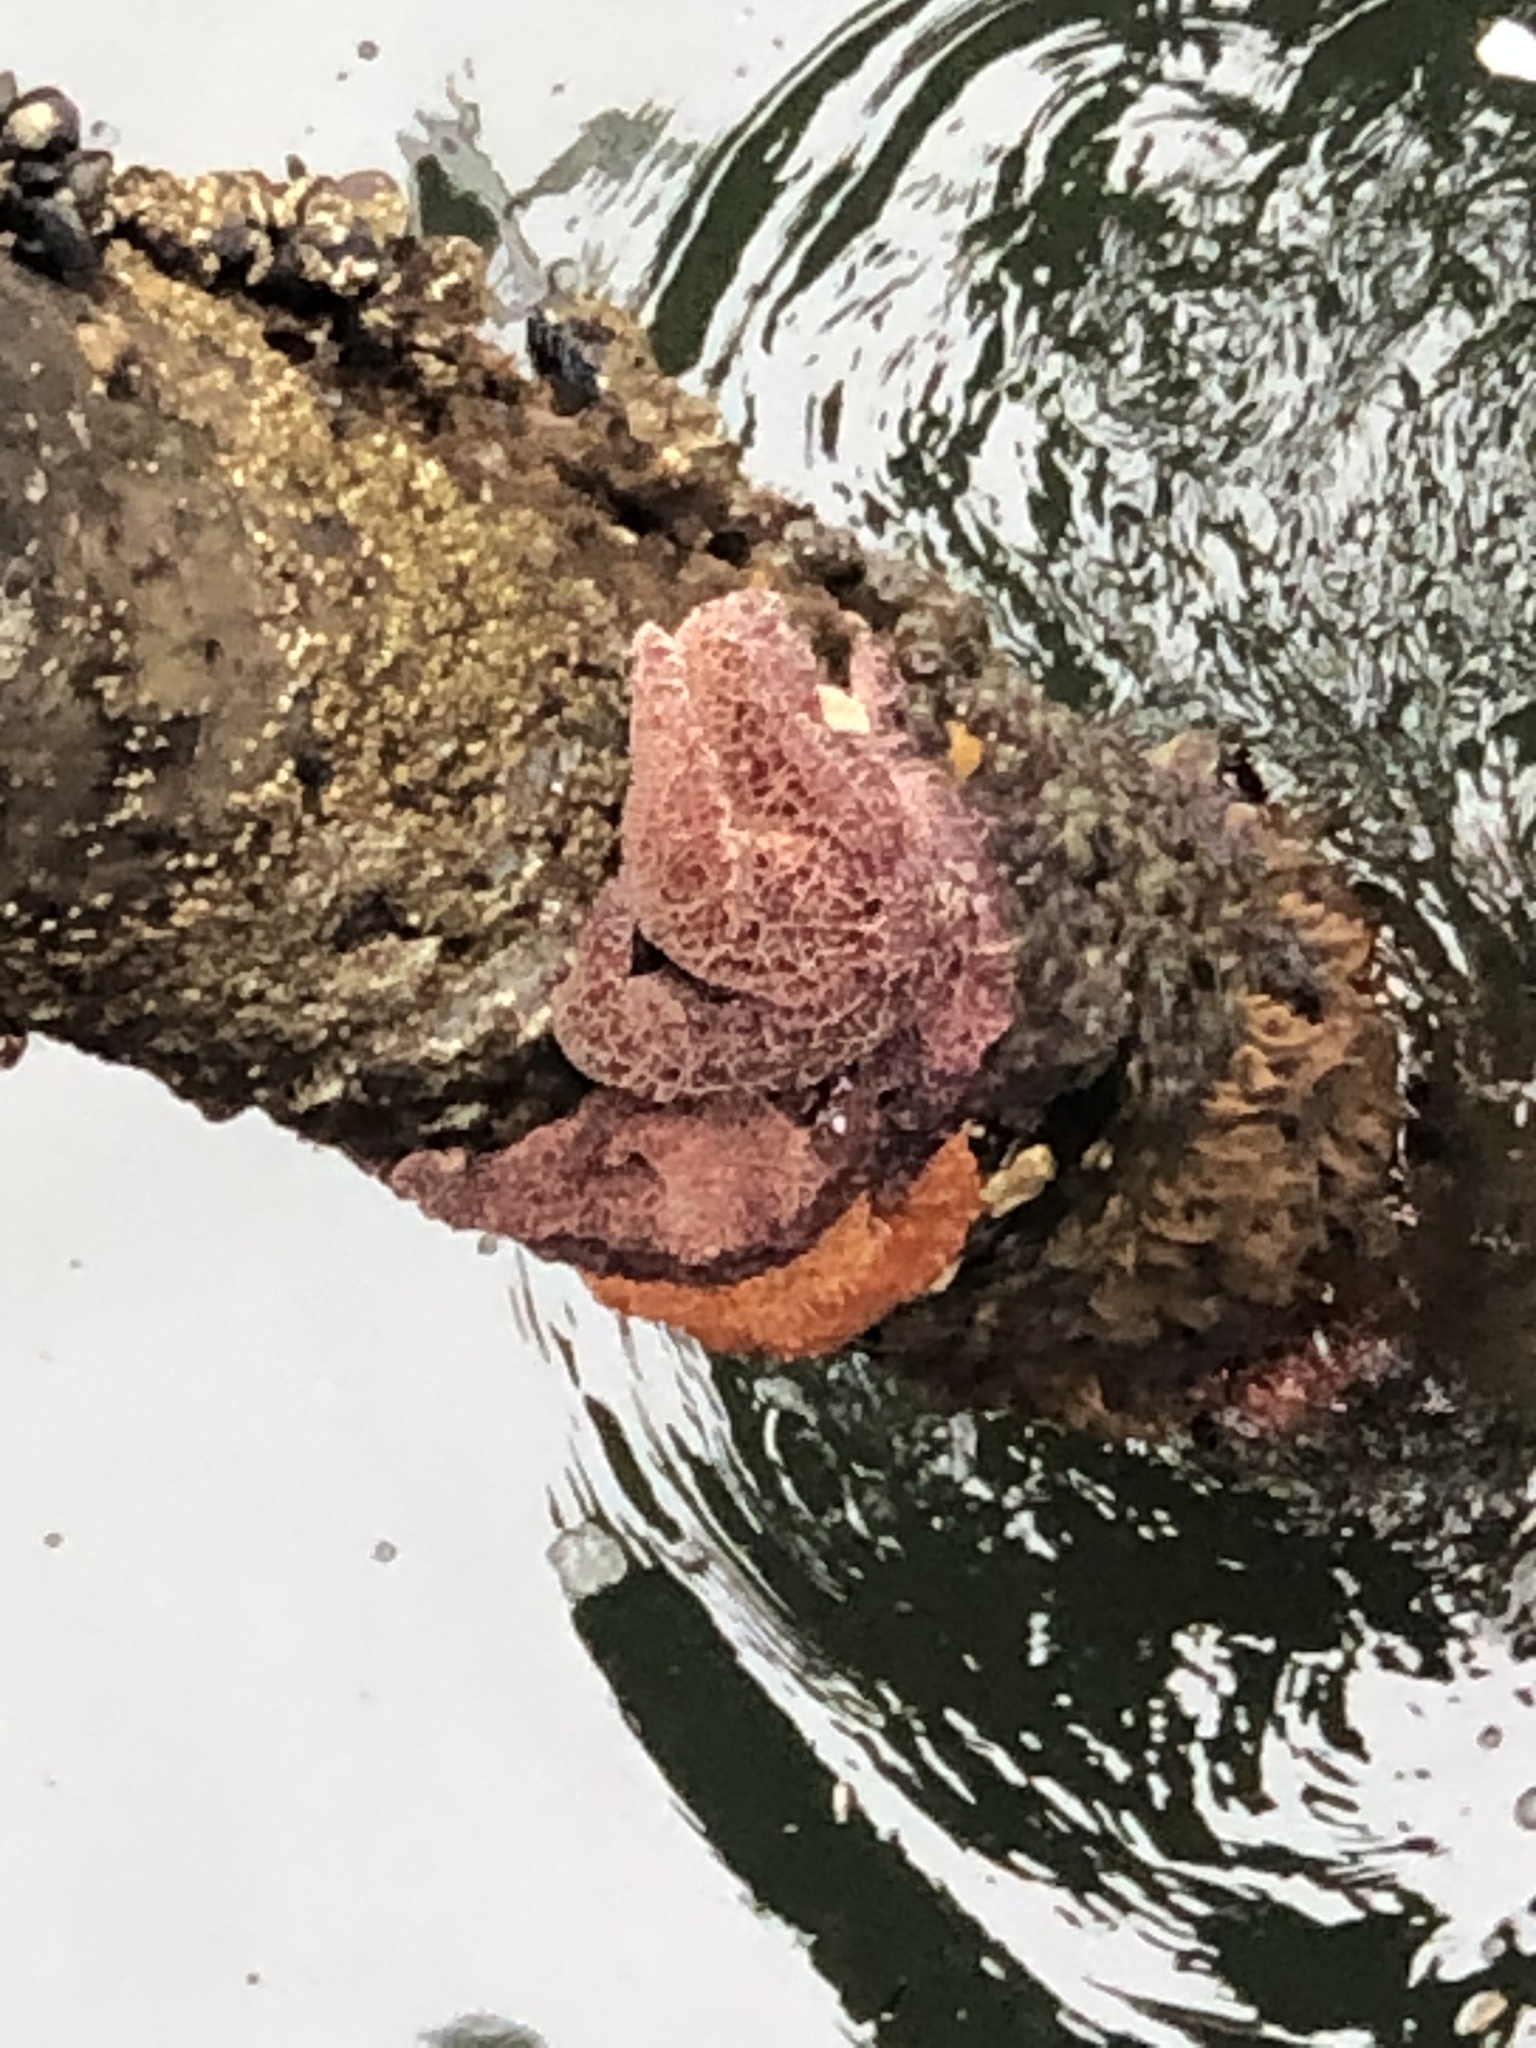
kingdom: Animalia
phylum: Echinodermata
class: Asteroidea
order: Forcipulatida
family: Asteriidae
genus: Pisaster
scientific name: Pisaster ochraceus
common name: Ochre stars
